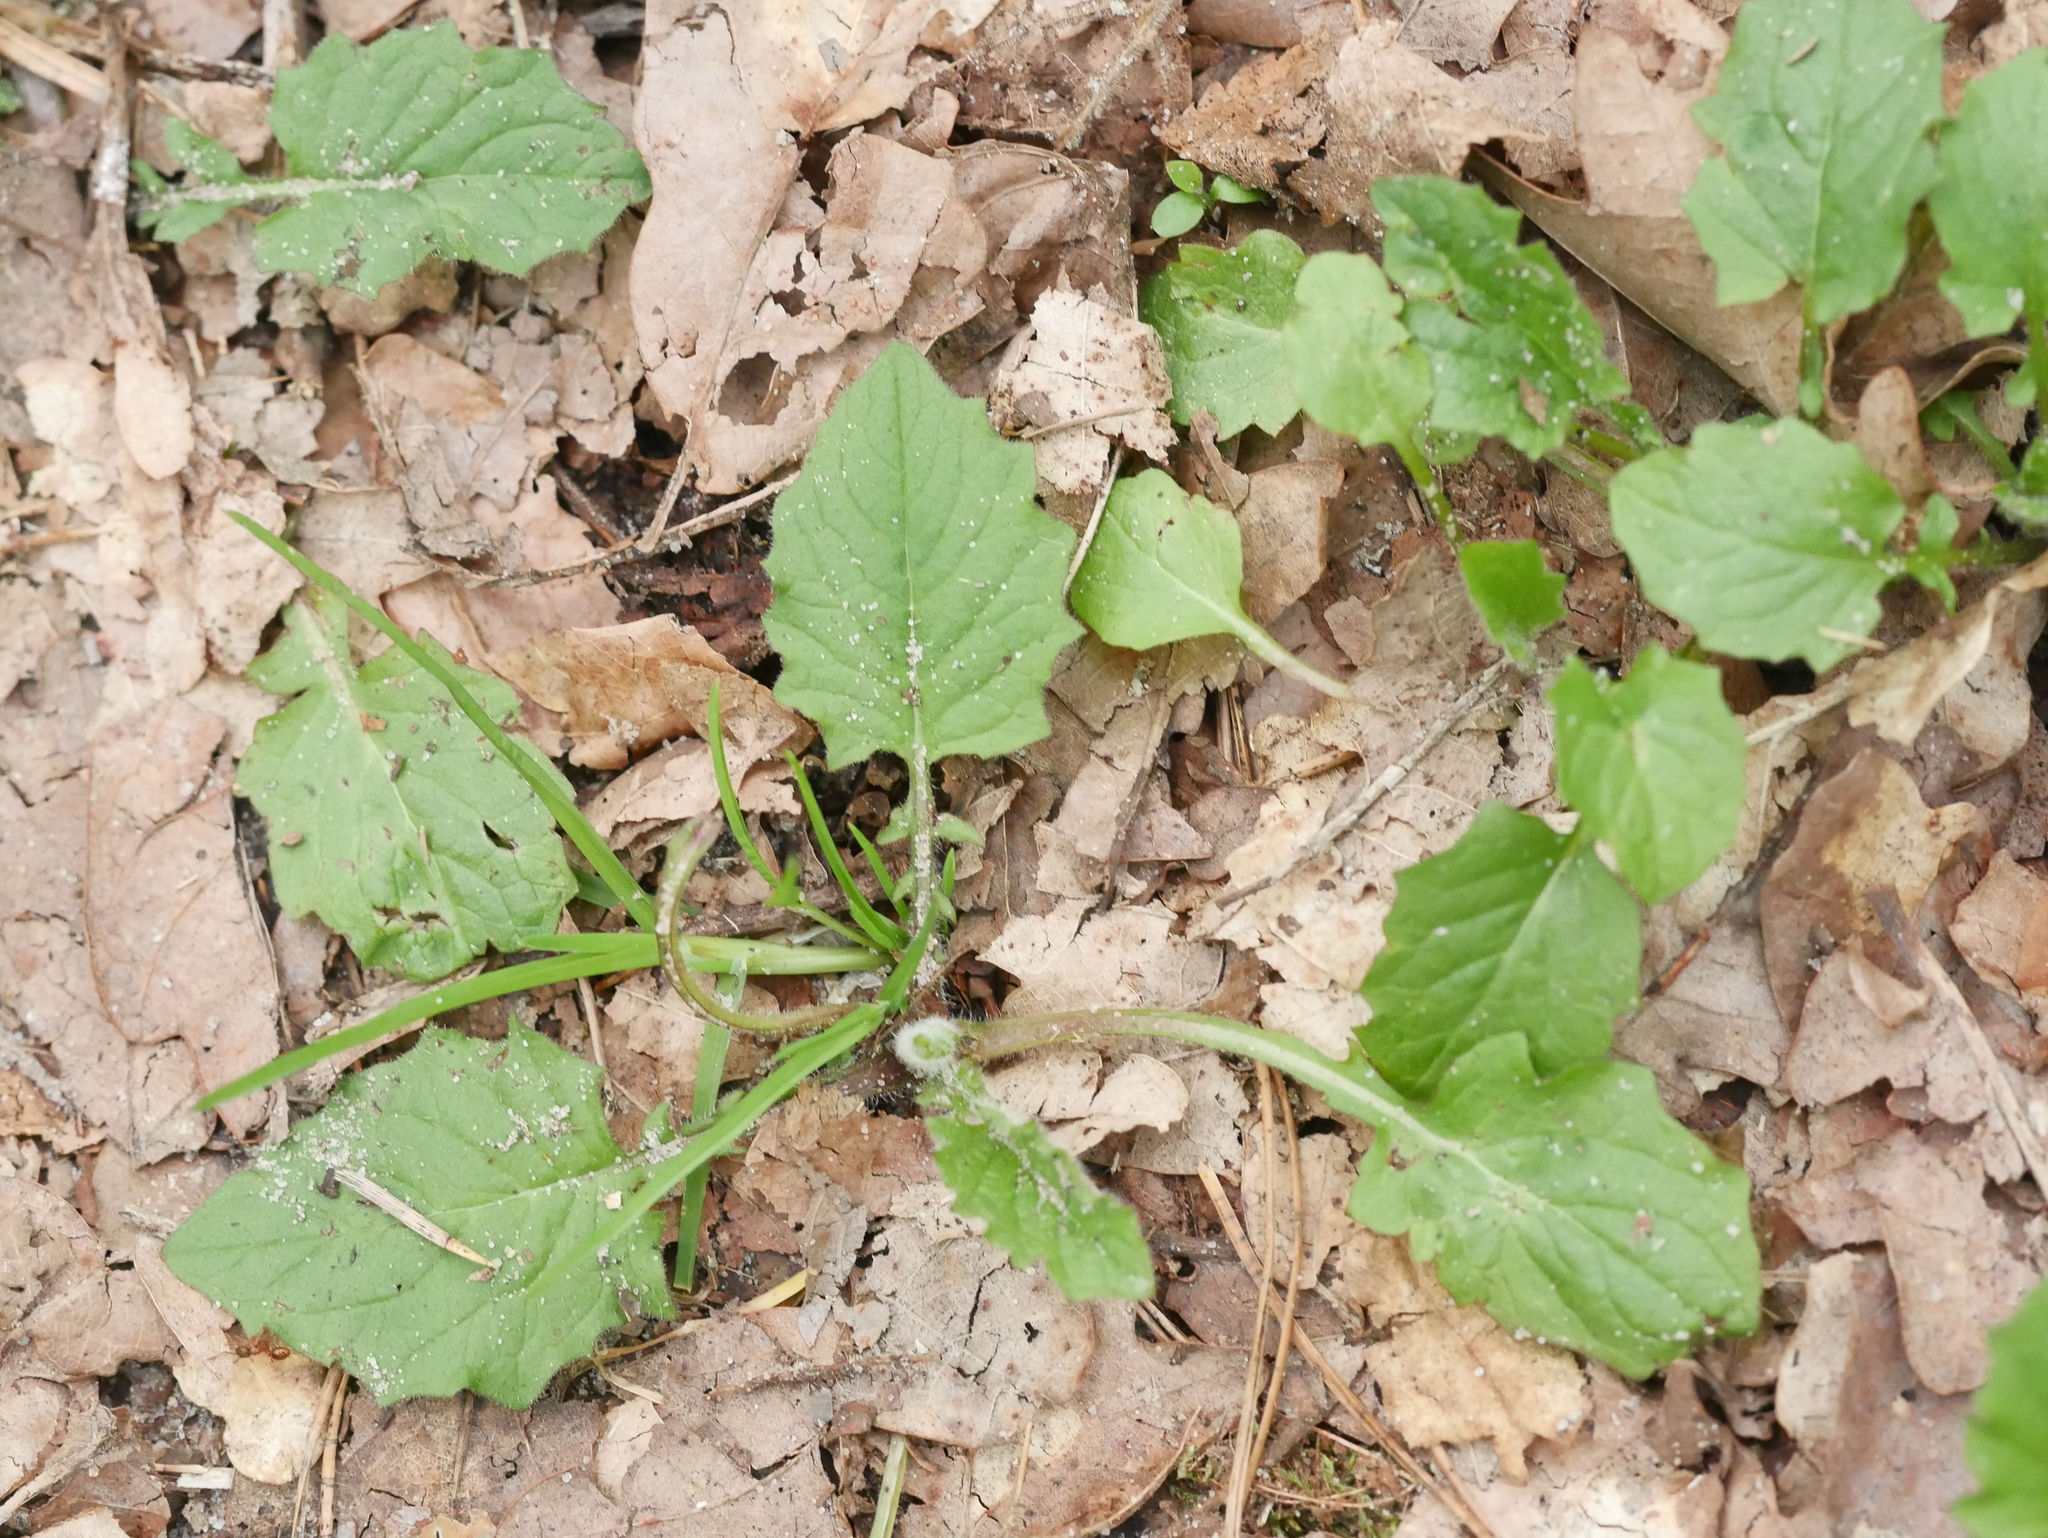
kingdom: Plantae
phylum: Tracheophyta
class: Magnoliopsida
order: Asterales
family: Asteraceae
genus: Lapsana
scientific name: Lapsana communis
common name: Nipplewort
